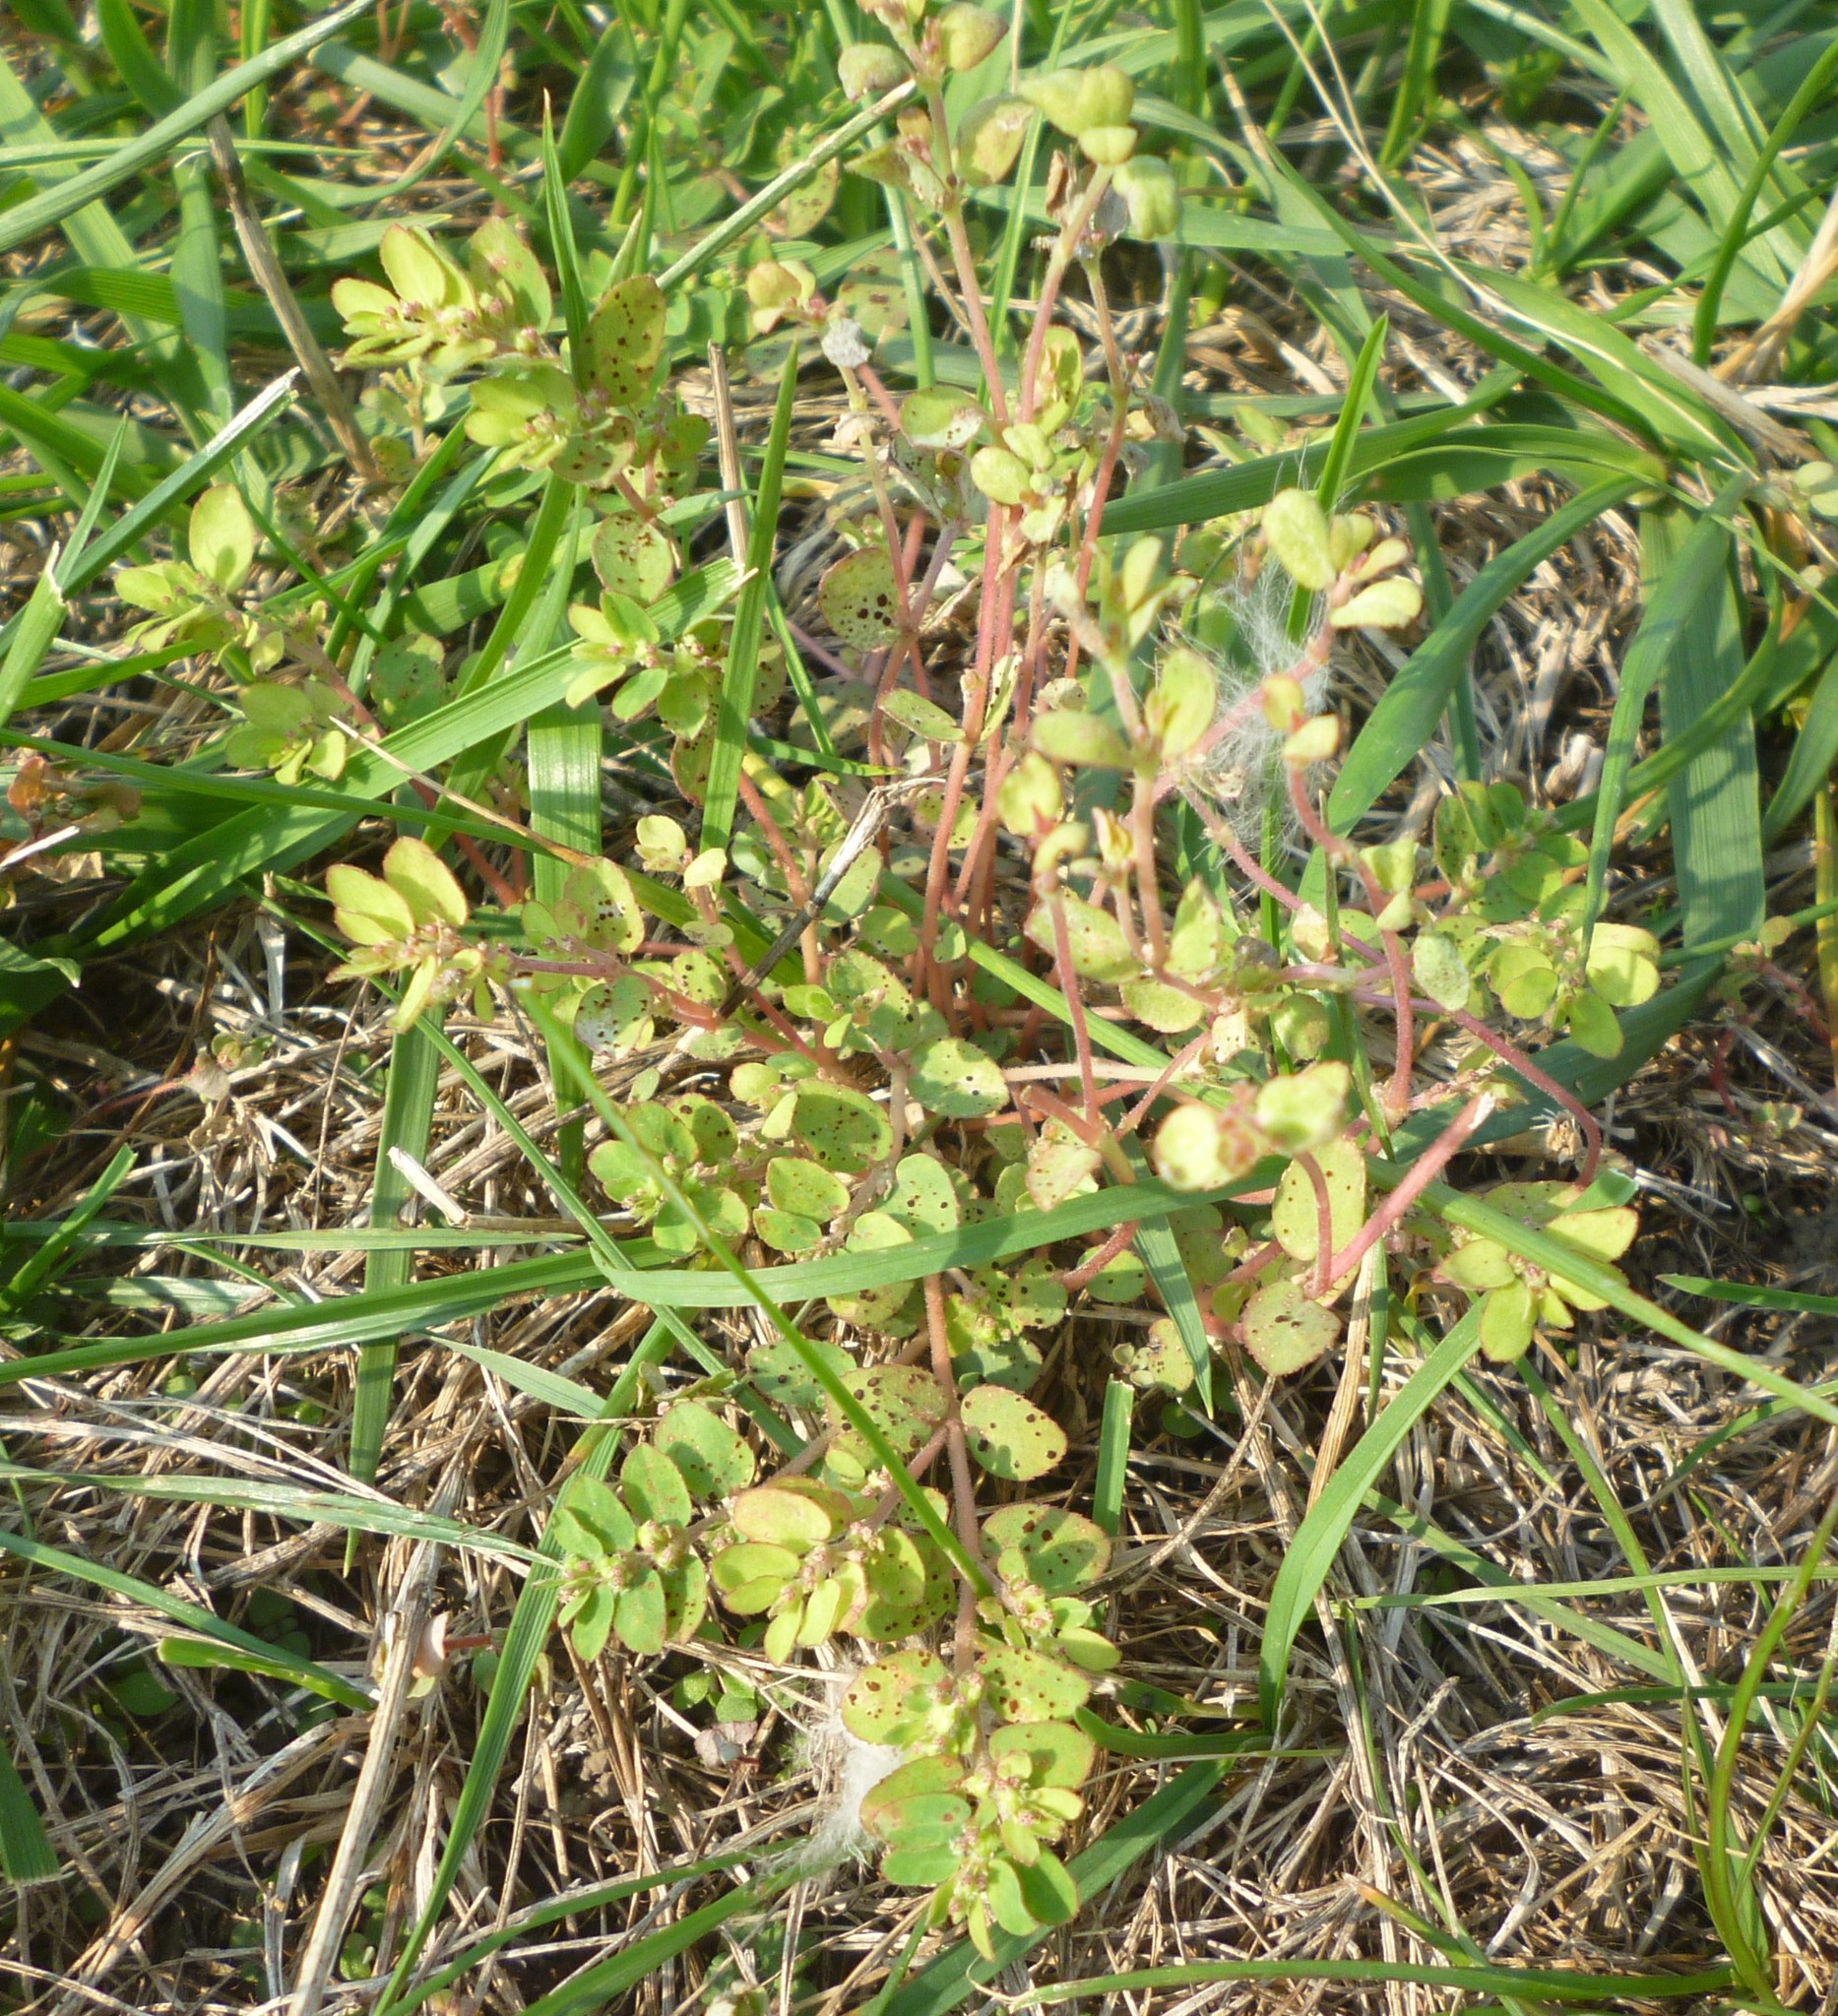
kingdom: Plantae
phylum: Tracheophyta
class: Magnoliopsida
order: Malpighiales
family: Euphorbiaceae
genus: Euphorbia
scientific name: Euphorbia prostrata
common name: Prostrate sandmat
